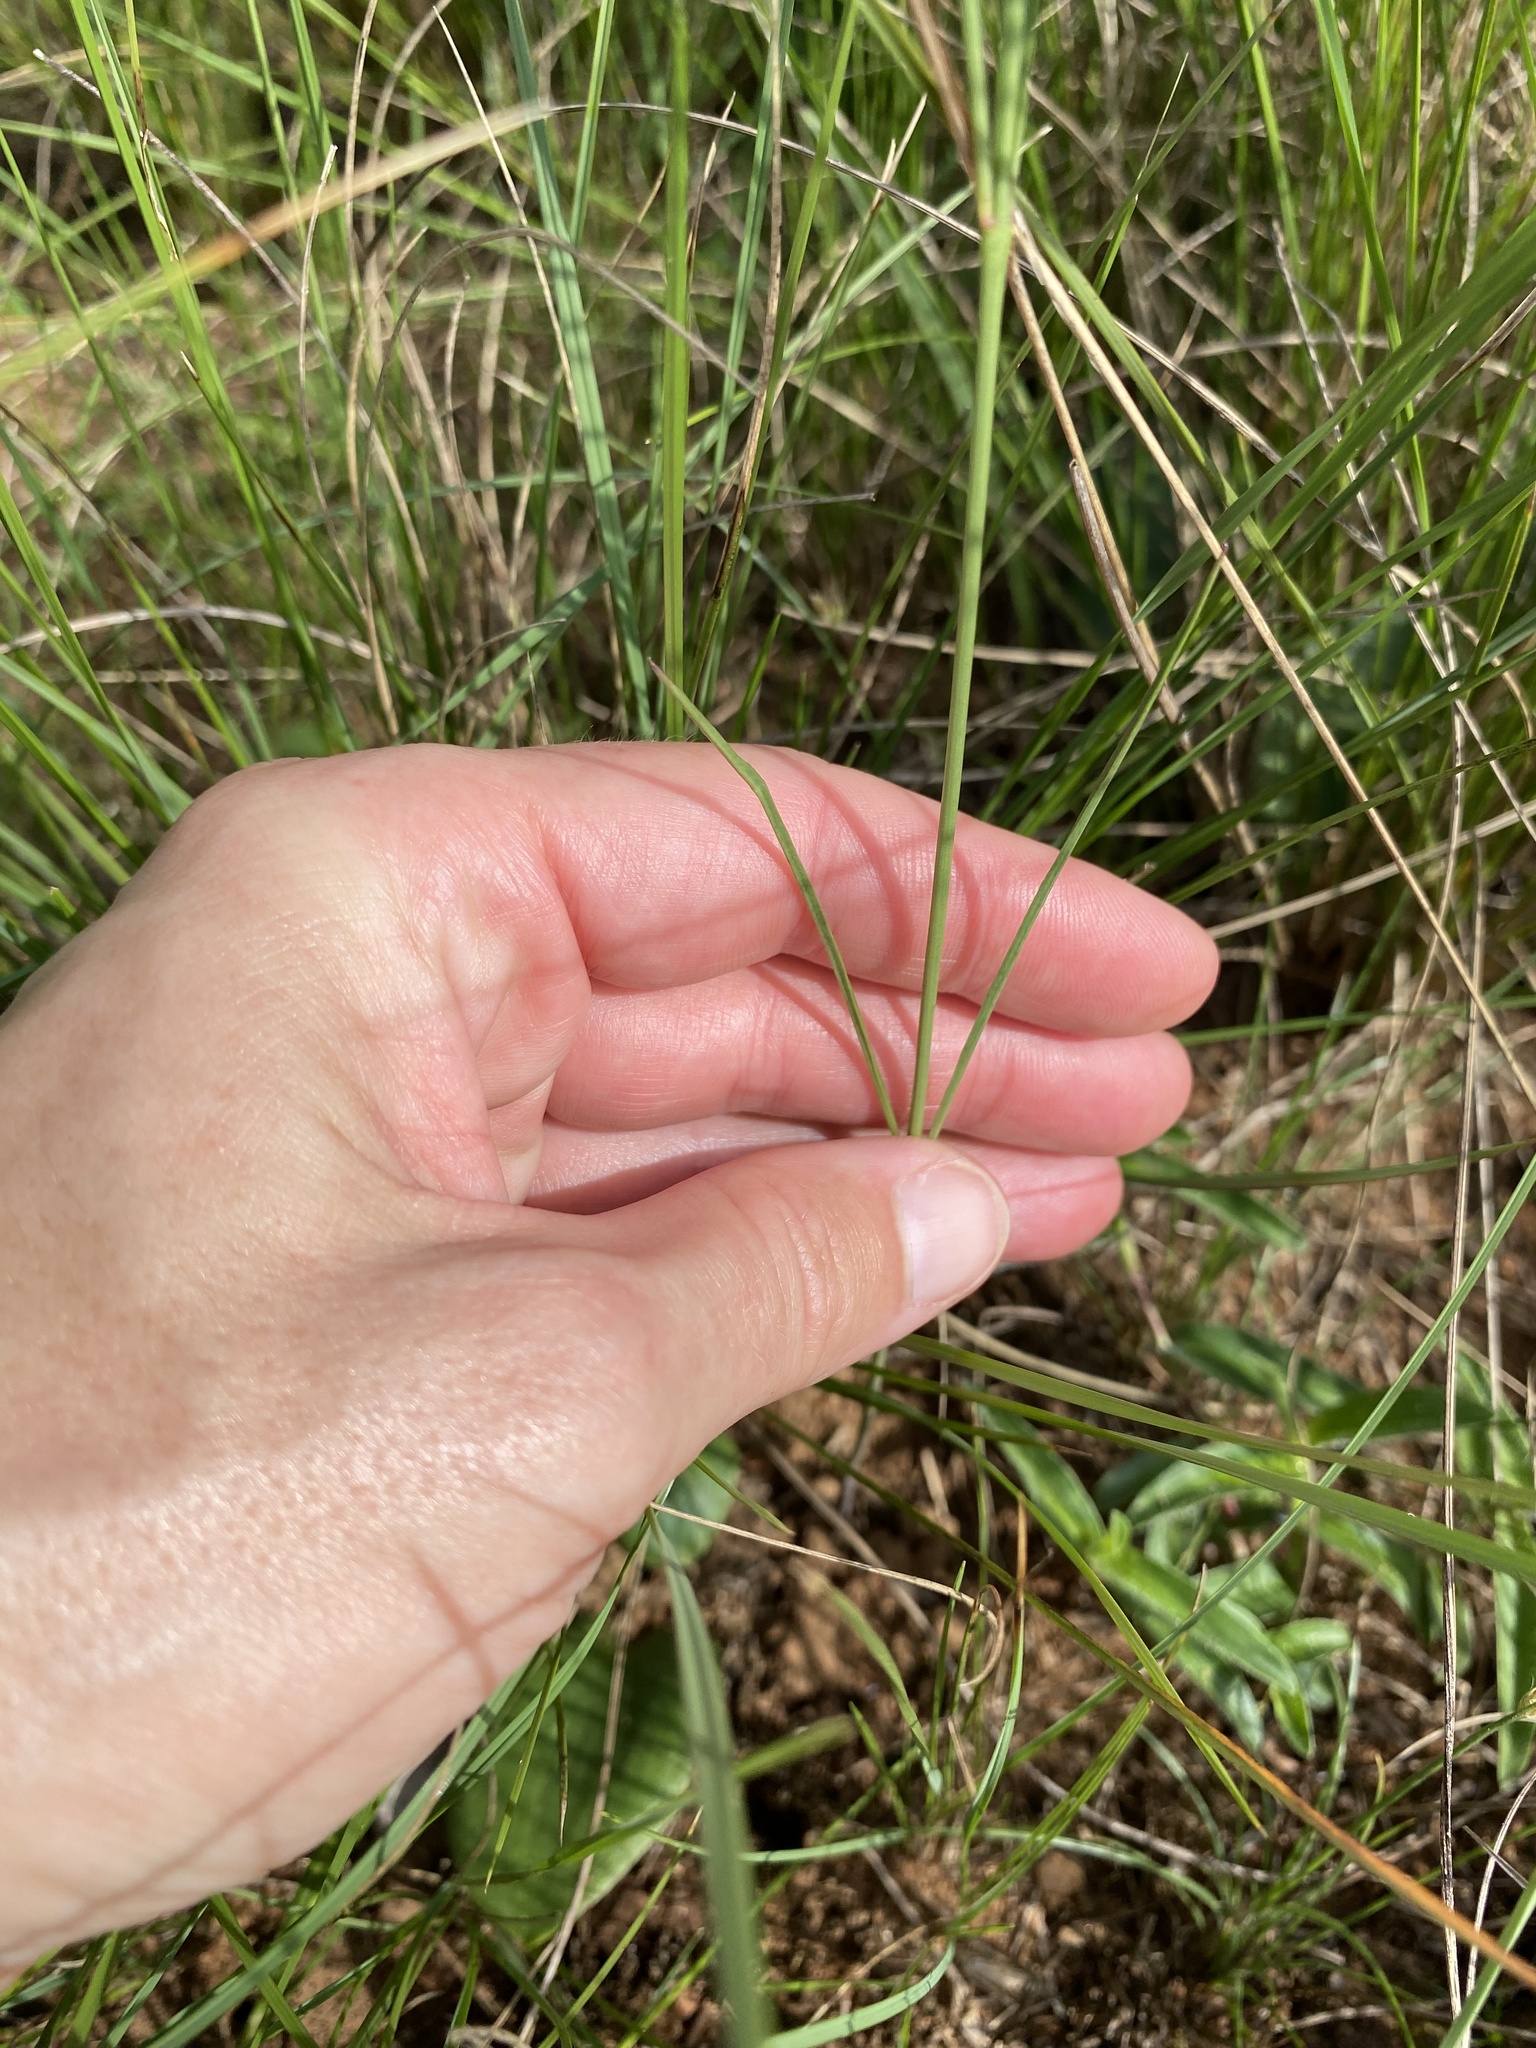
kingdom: Plantae
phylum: Tracheophyta
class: Magnoliopsida
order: Gentianales
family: Apocynaceae
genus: Ceropegia
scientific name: Ceropegia rubella
